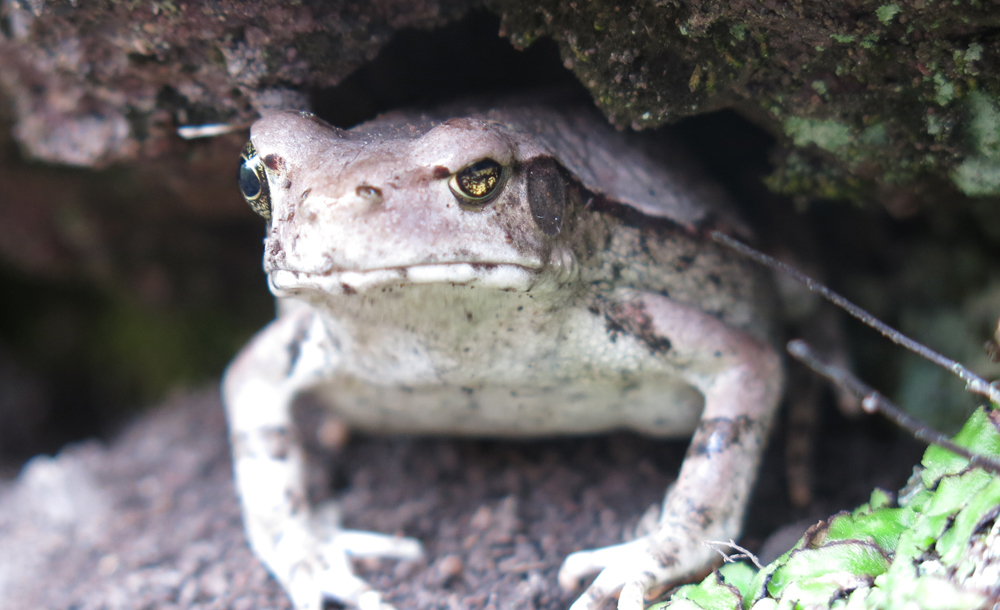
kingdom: Animalia
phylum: Chordata
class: Amphibia
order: Anura
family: Bufonidae
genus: Schismaderma
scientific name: Schismaderma carens
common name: African split-skin toad
